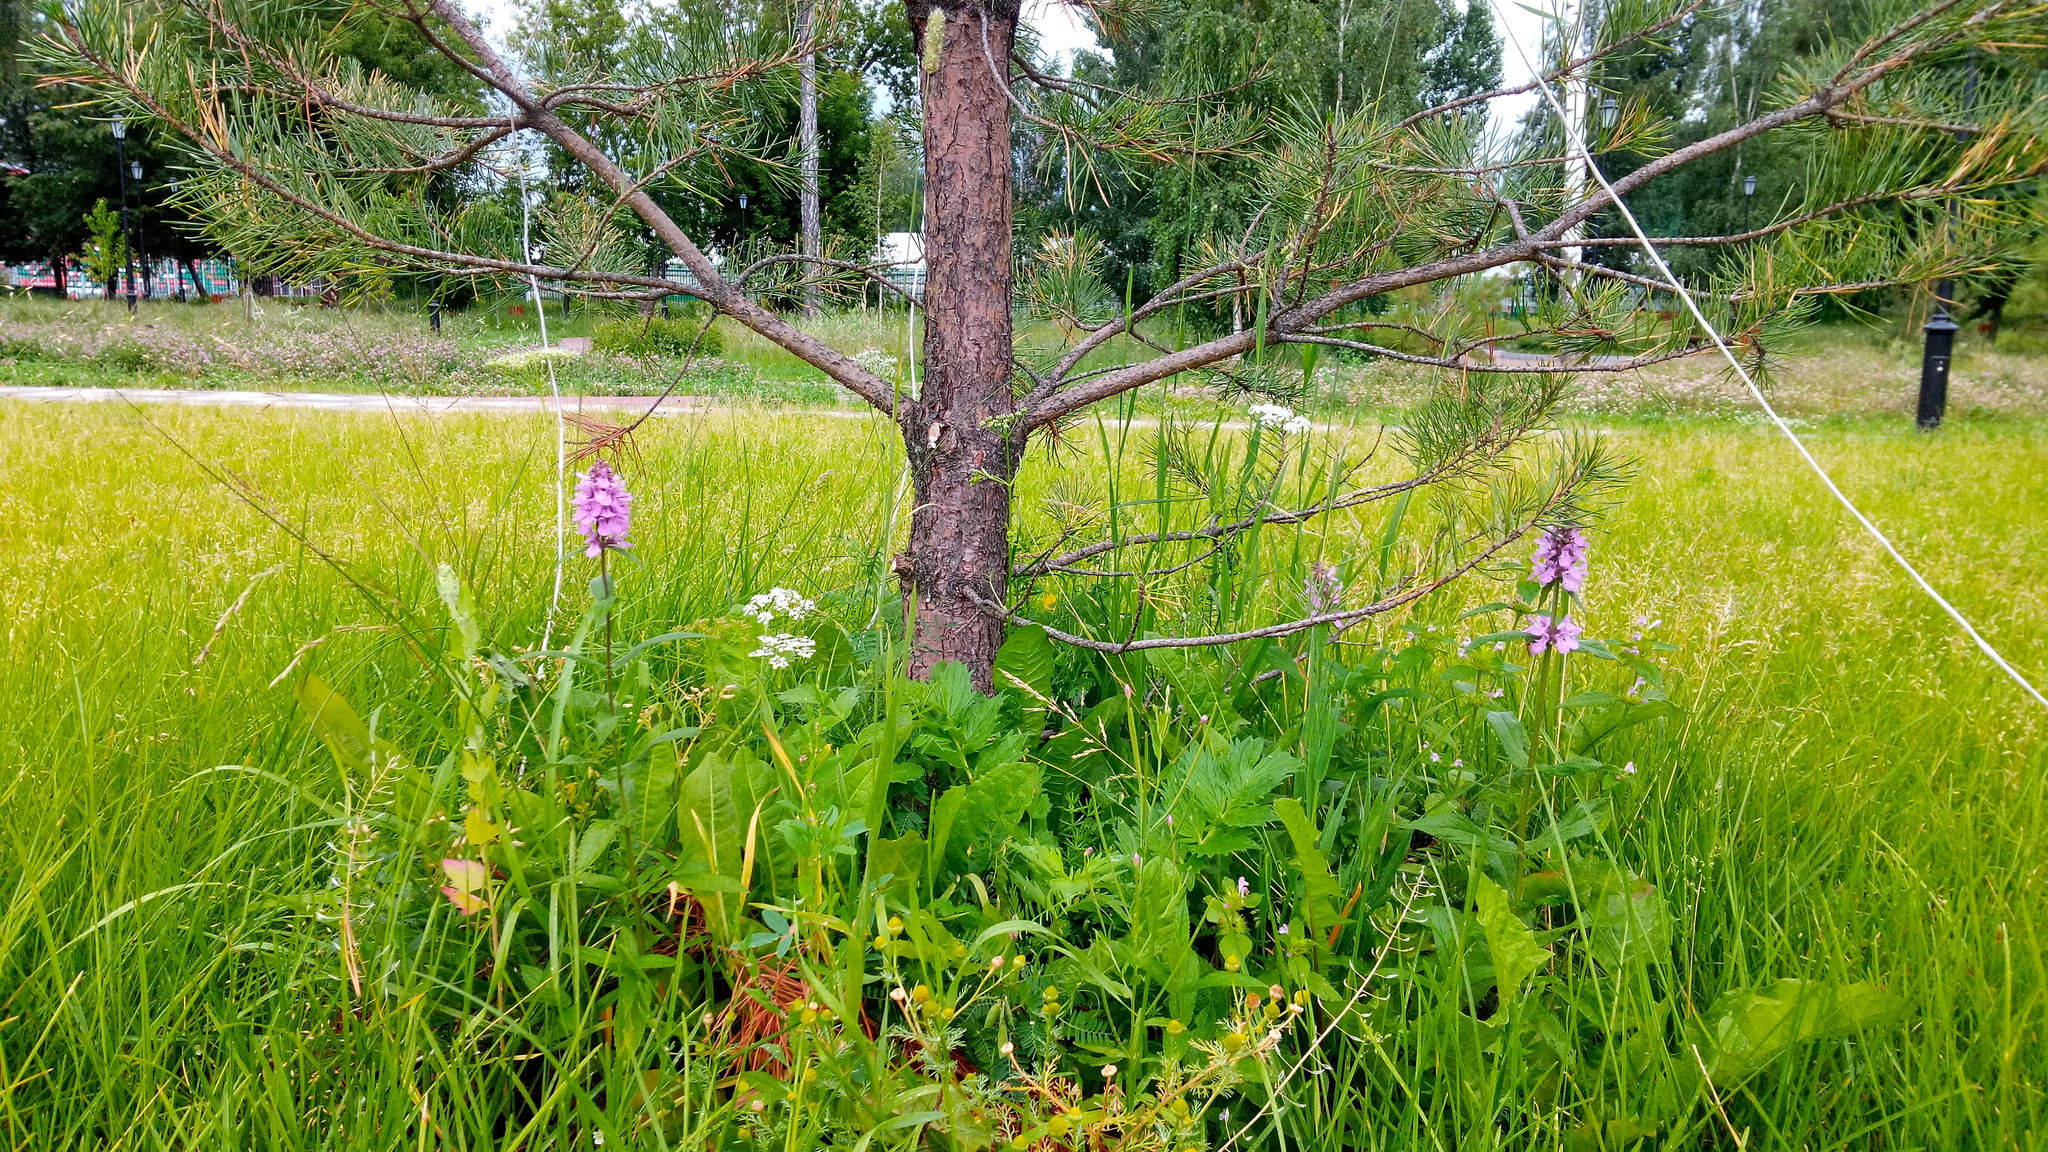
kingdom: Plantae
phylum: Tracheophyta
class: Magnoliopsida
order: Lamiales
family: Lamiaceae
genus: Stachys
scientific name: Stachys palustris
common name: Marsh woundwort
